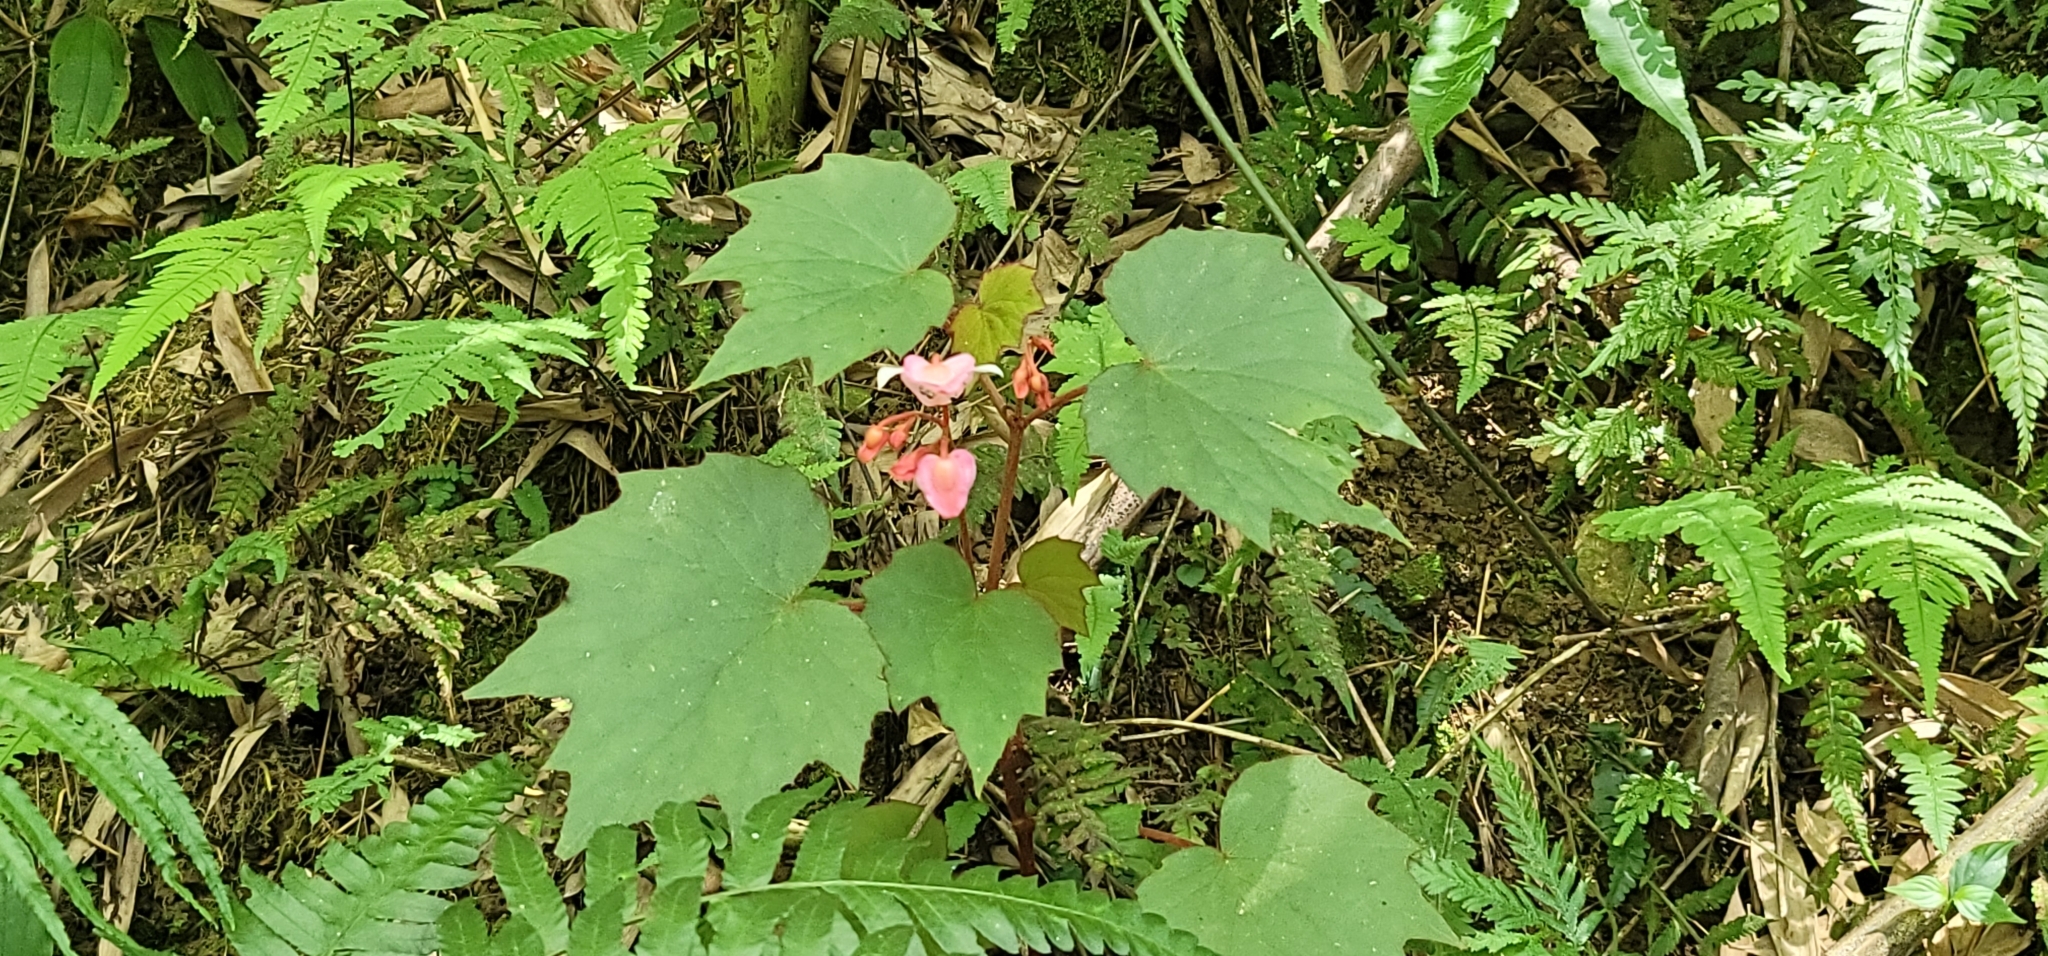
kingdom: Plantae
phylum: Tracheophyta
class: Magnoliopsida
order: Cucurbitales
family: Begoniaceae
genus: Begonia
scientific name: Begonia palmata
